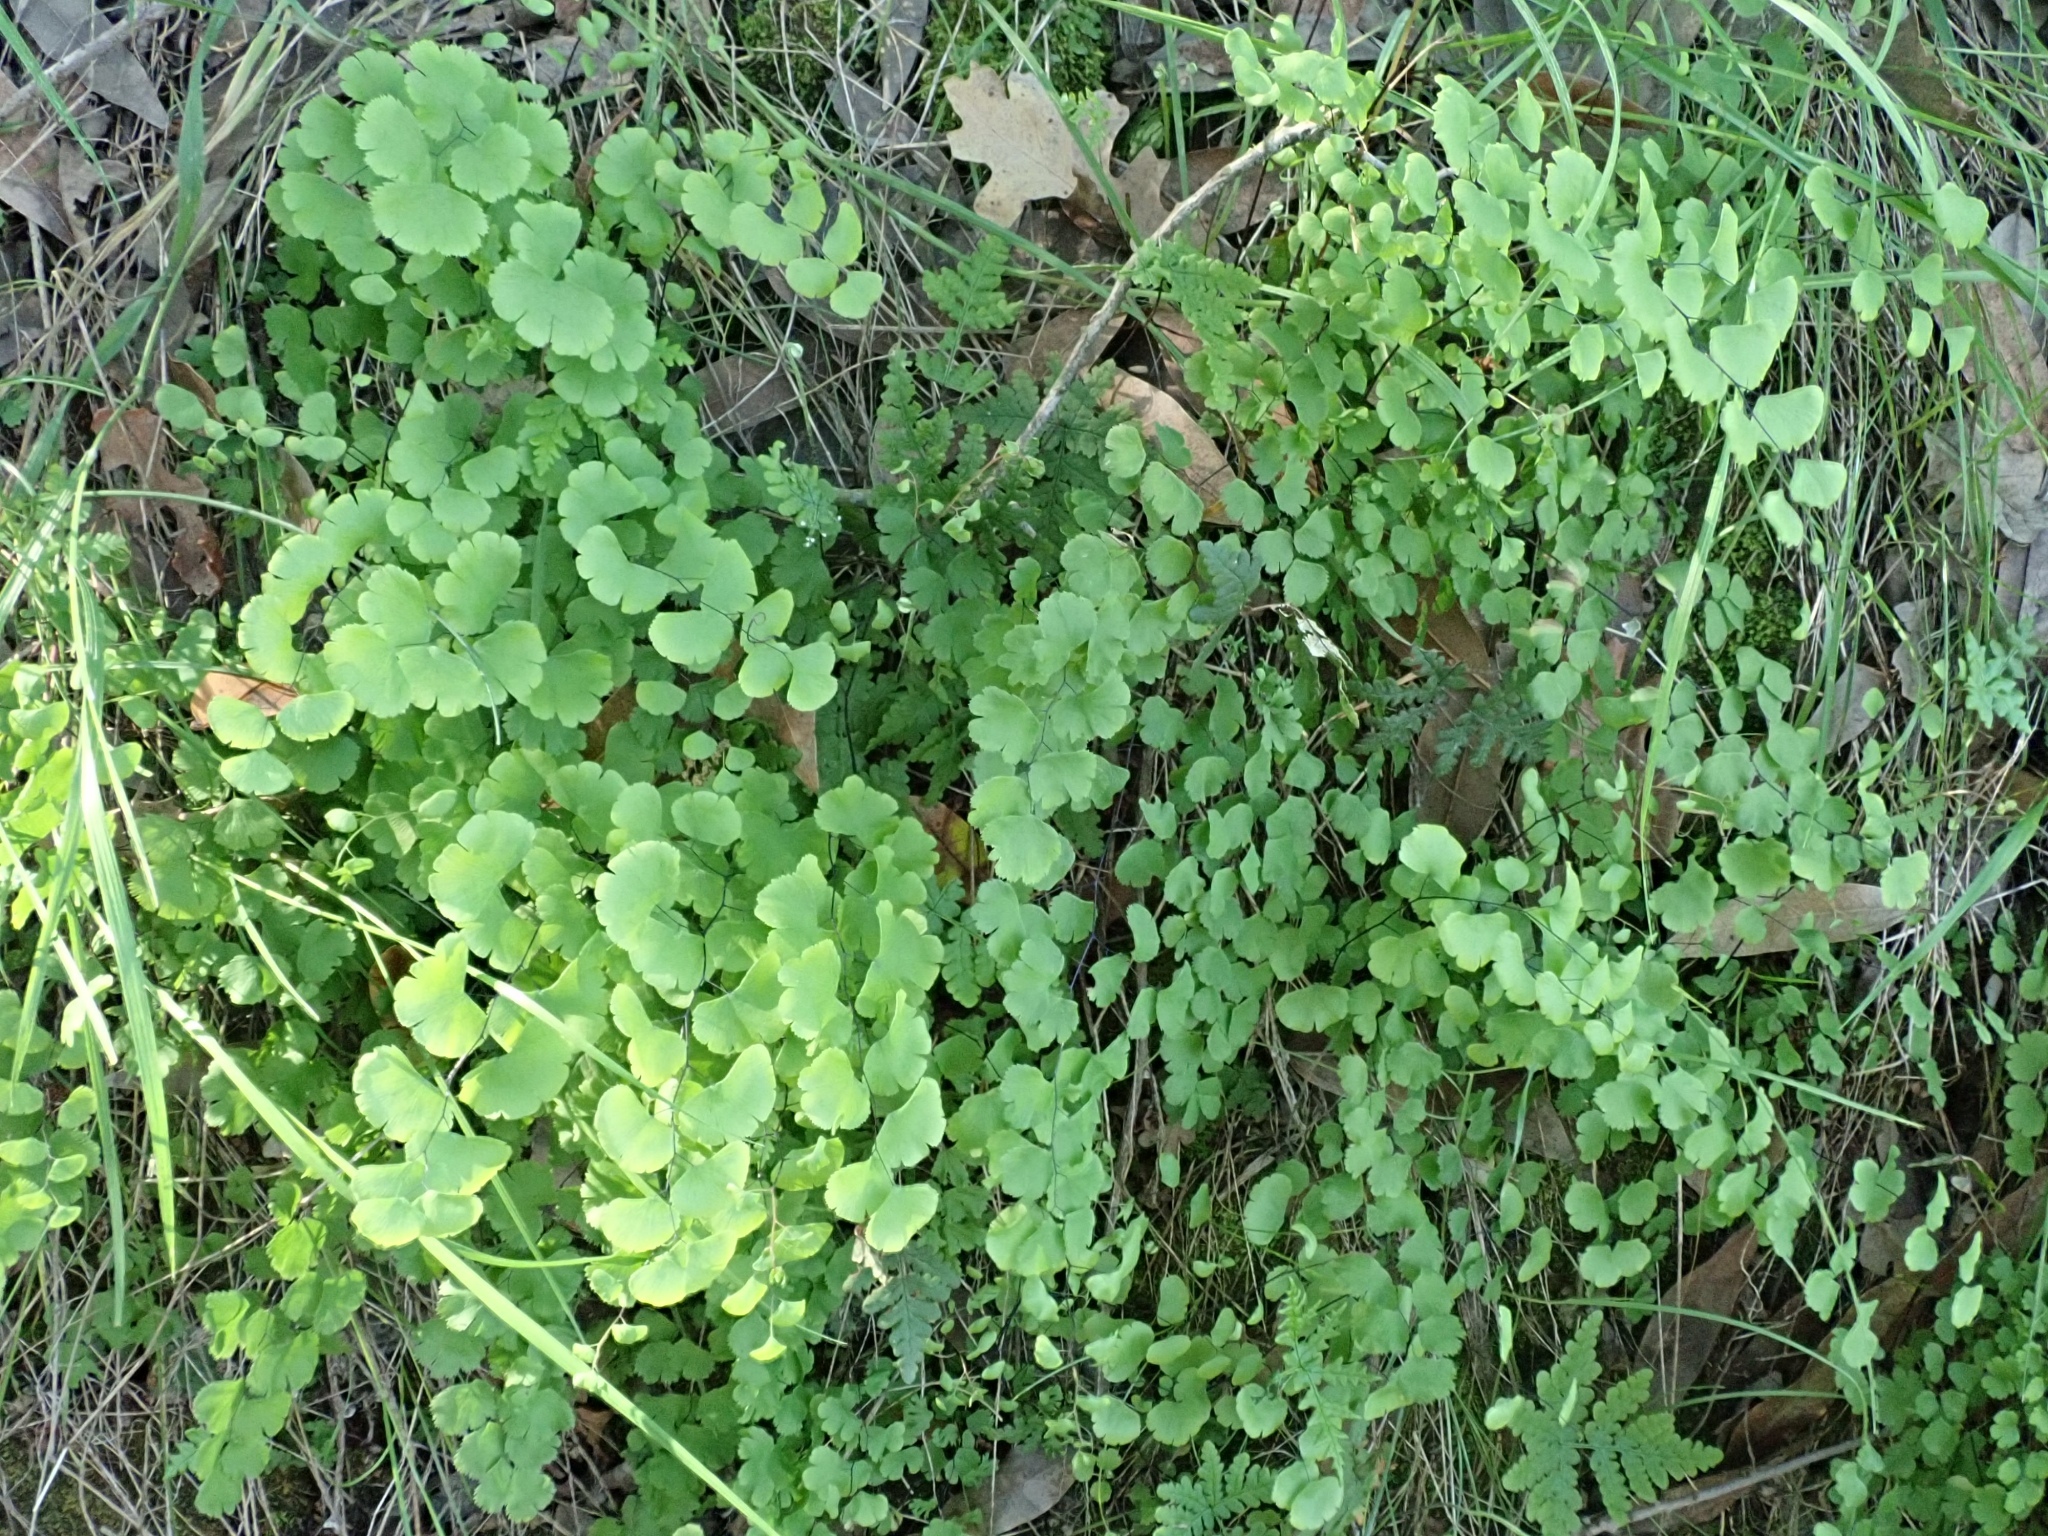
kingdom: Plantae
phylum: Tracheophyta
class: Polypodiopsida
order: Polypodiales
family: Pteridaceae
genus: Adiantum
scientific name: Adiantum jordanii
